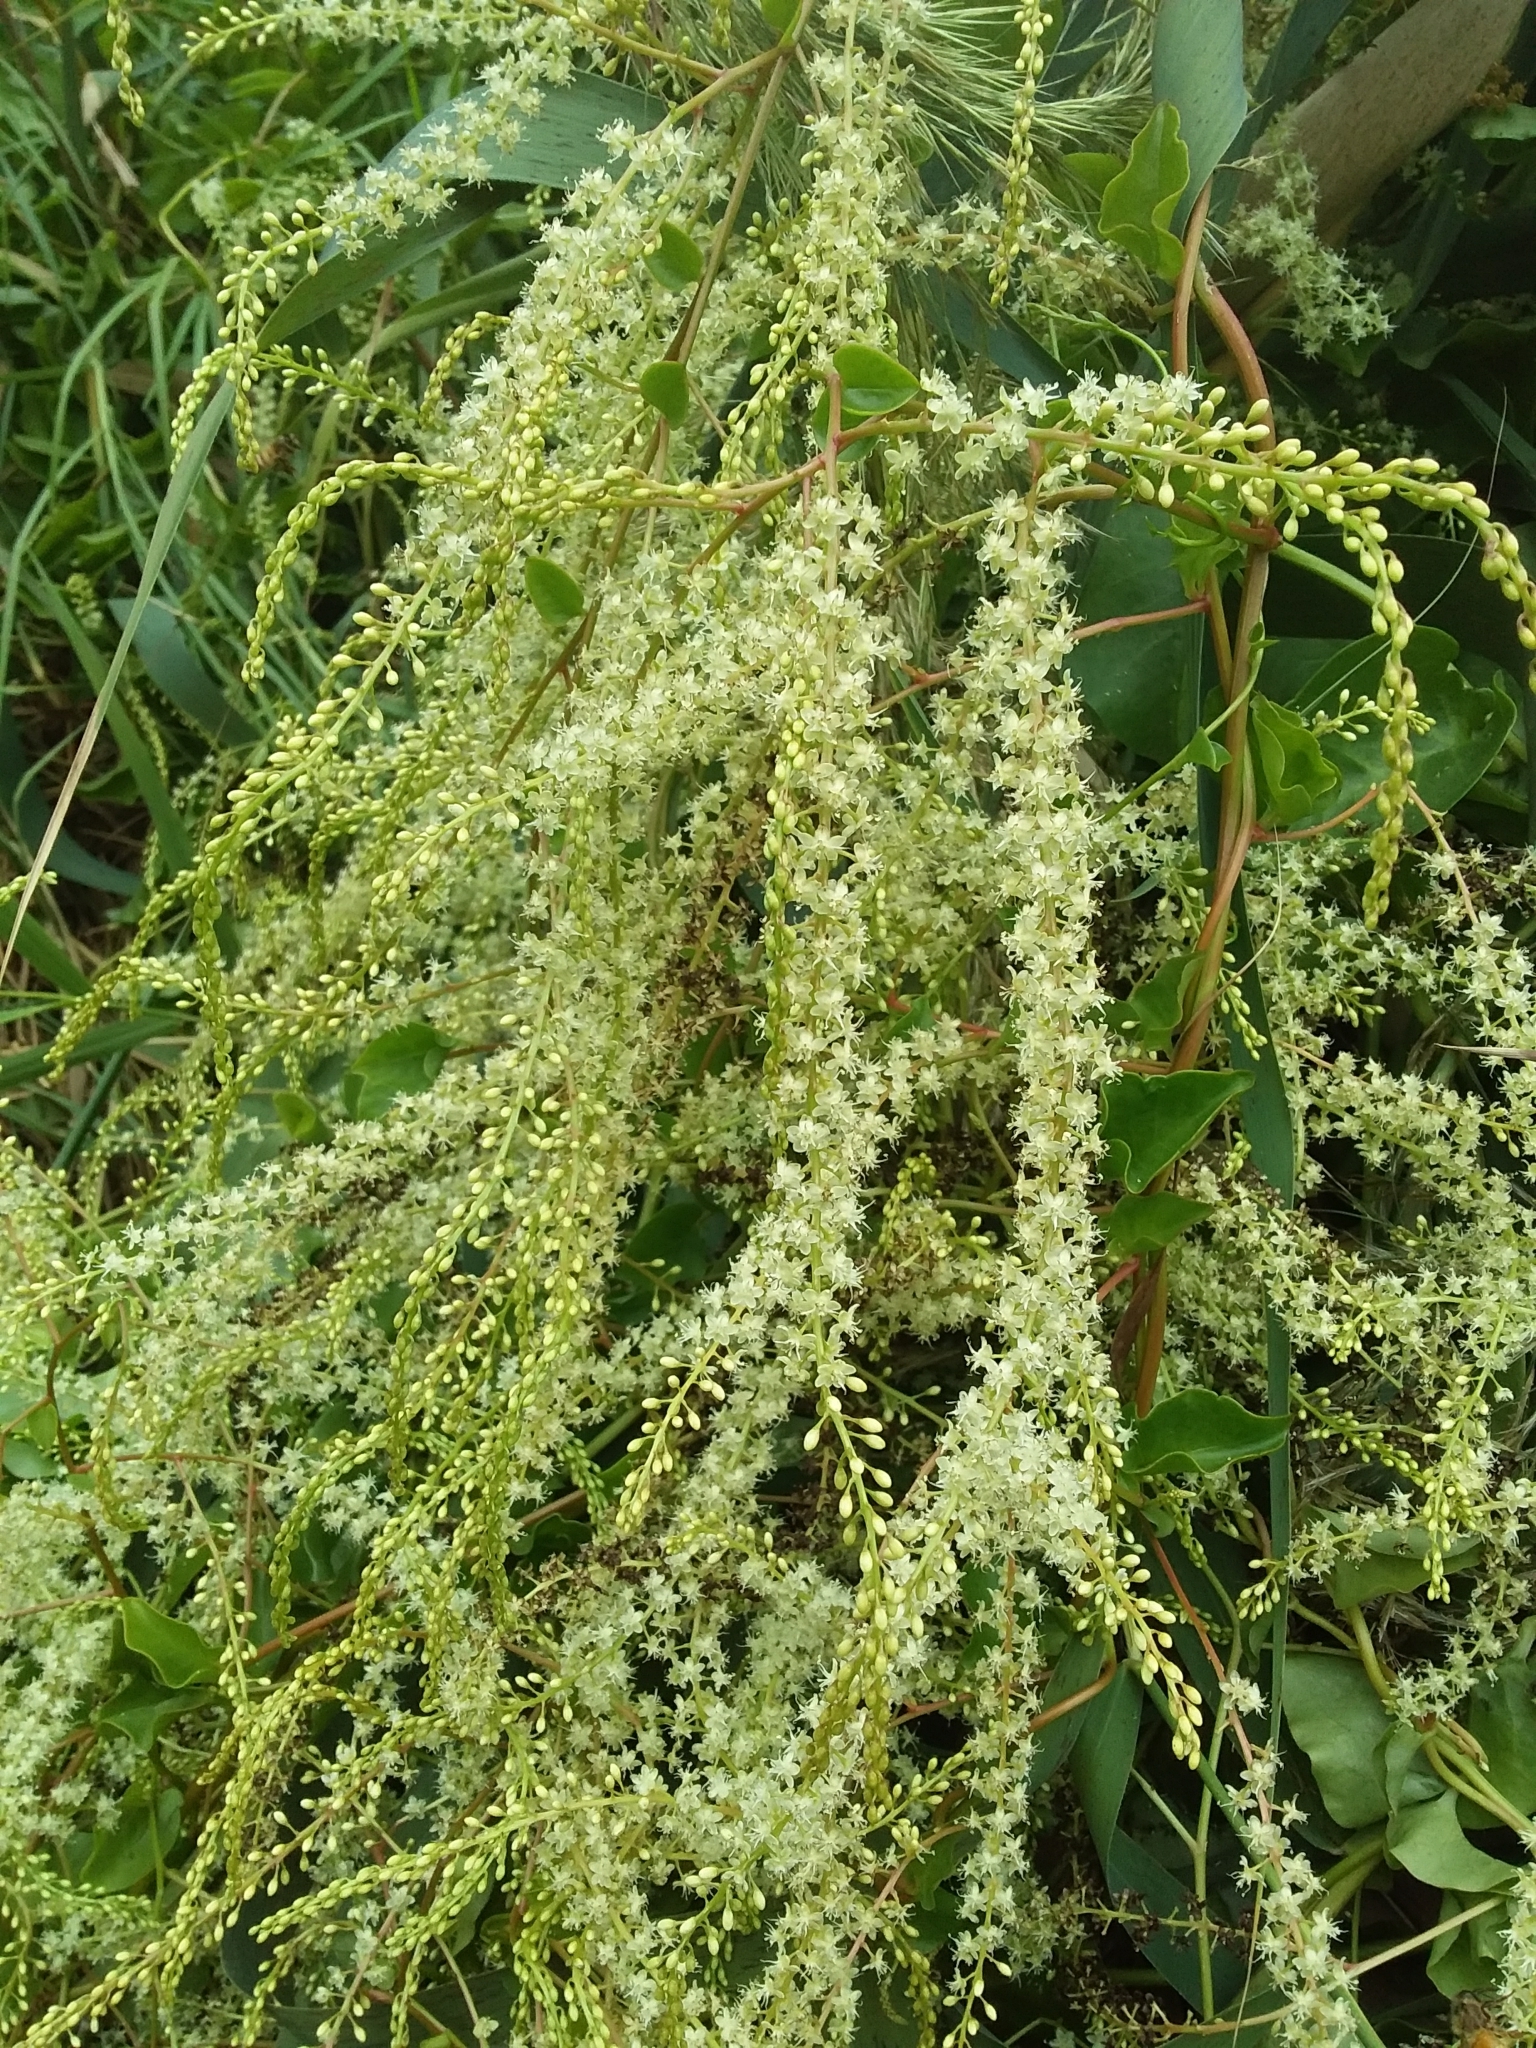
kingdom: Plantae
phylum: Tracheophyta
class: Magnoliopsida
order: Caryophyllales
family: Basellaceae
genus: Anredera
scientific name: Anredera cordifolia
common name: Heartleaf madeiravine
